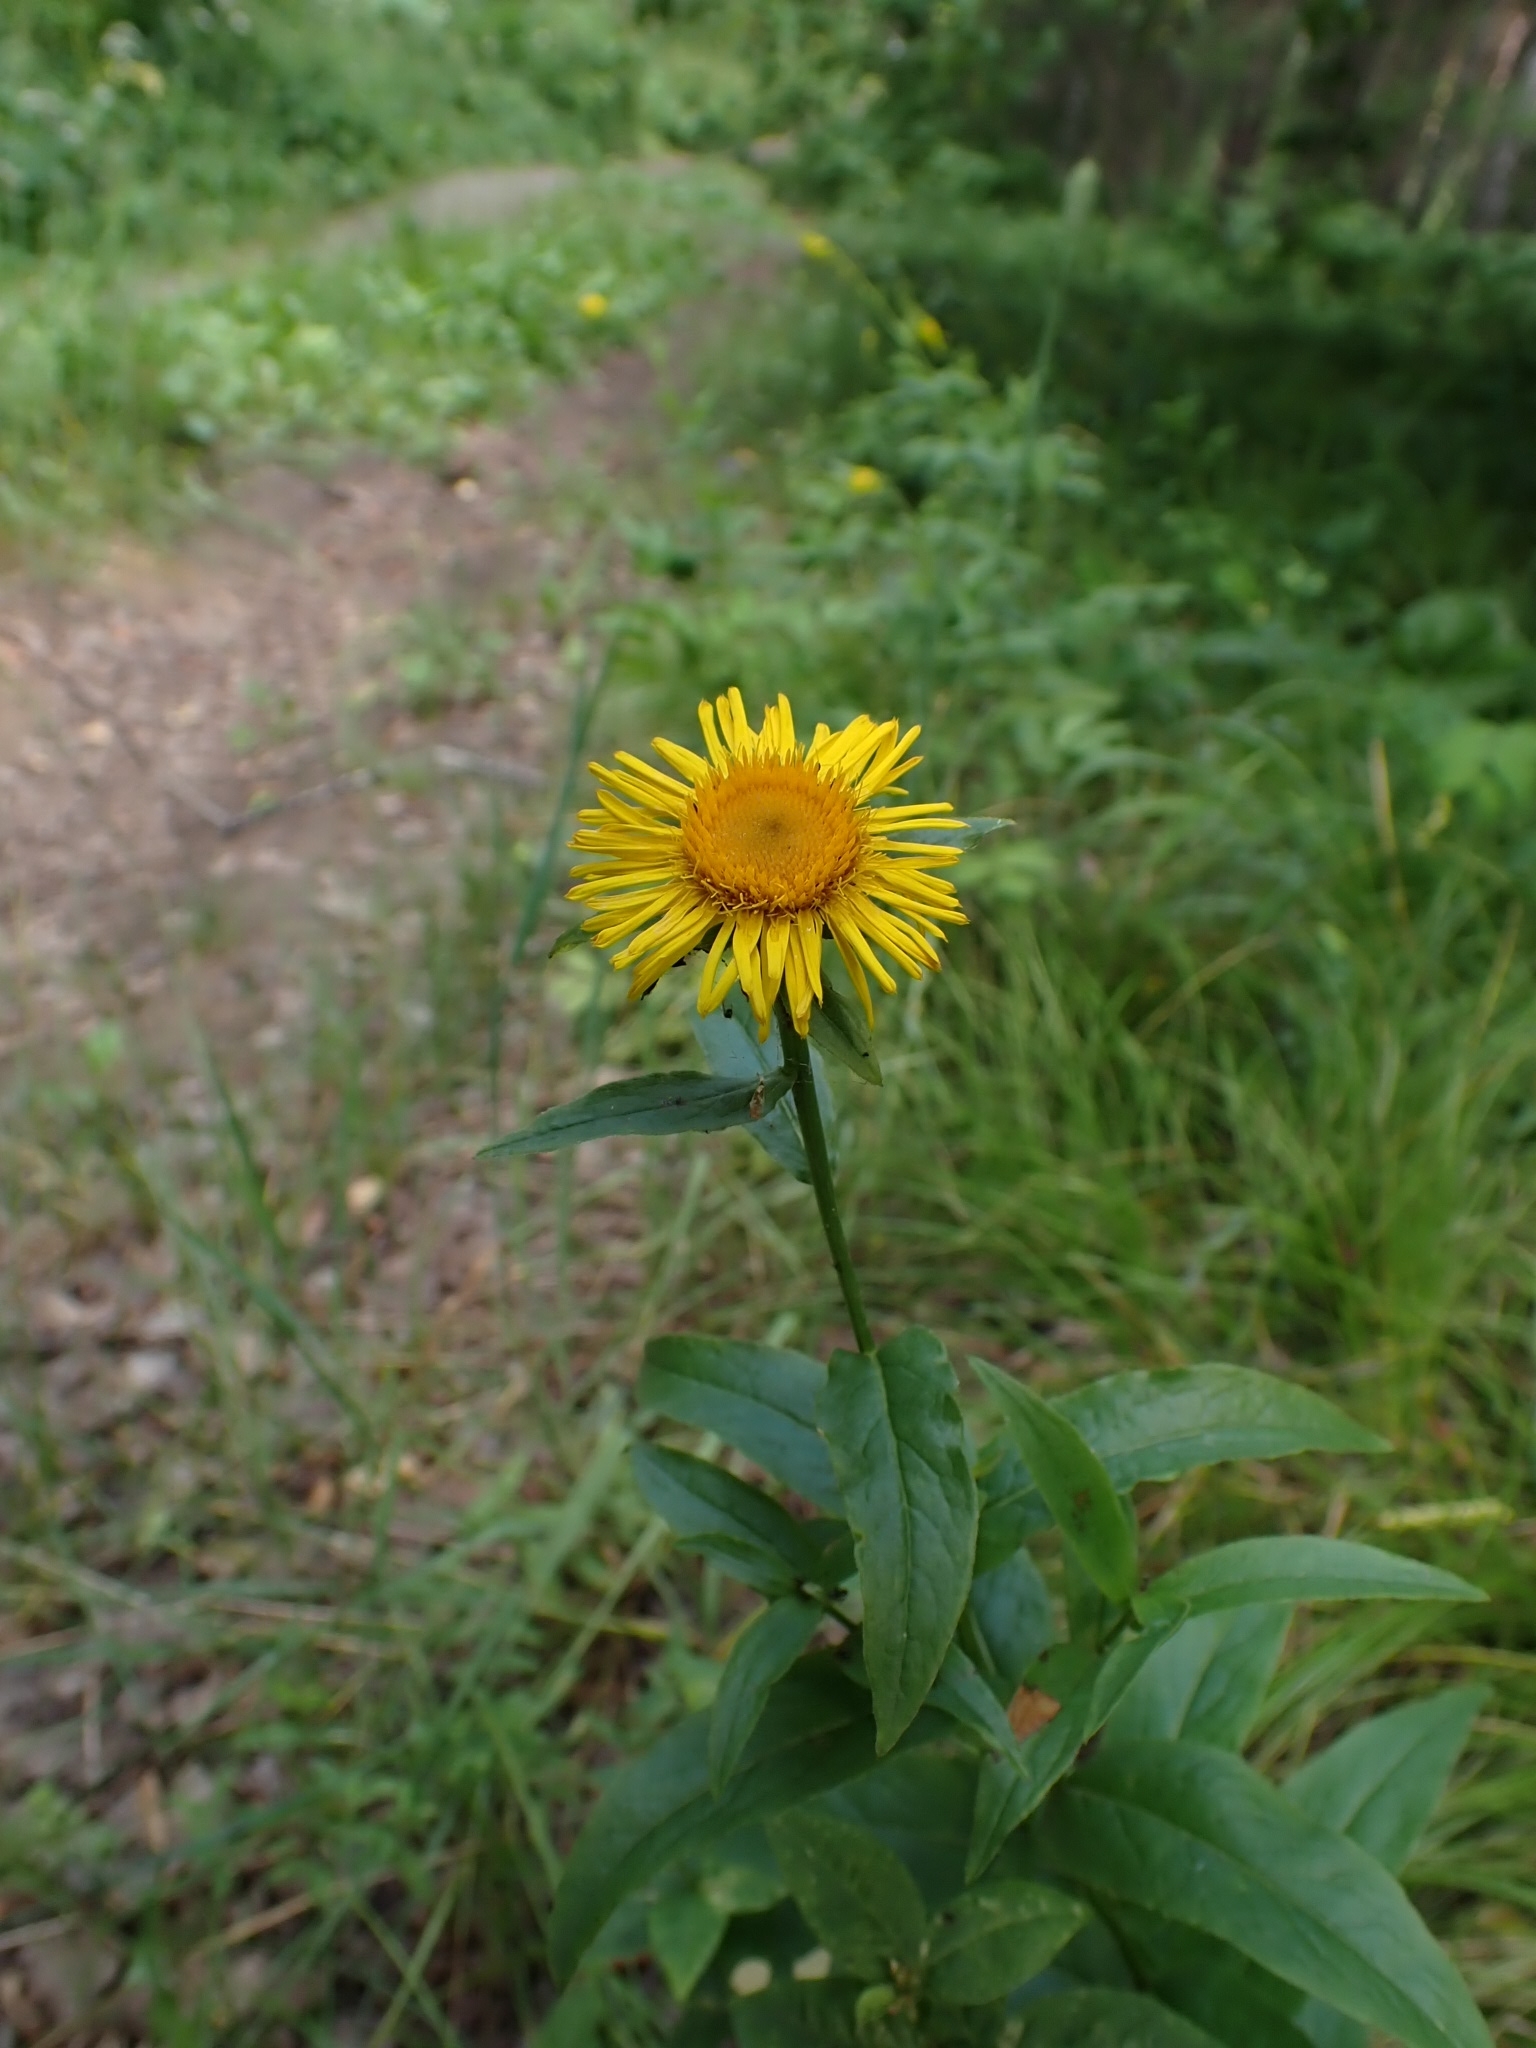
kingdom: Plantae
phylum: Tracheophyta
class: Magnoliopsida
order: Asterales
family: Asteraceae
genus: Pentanema
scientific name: Pentanema salicinum
